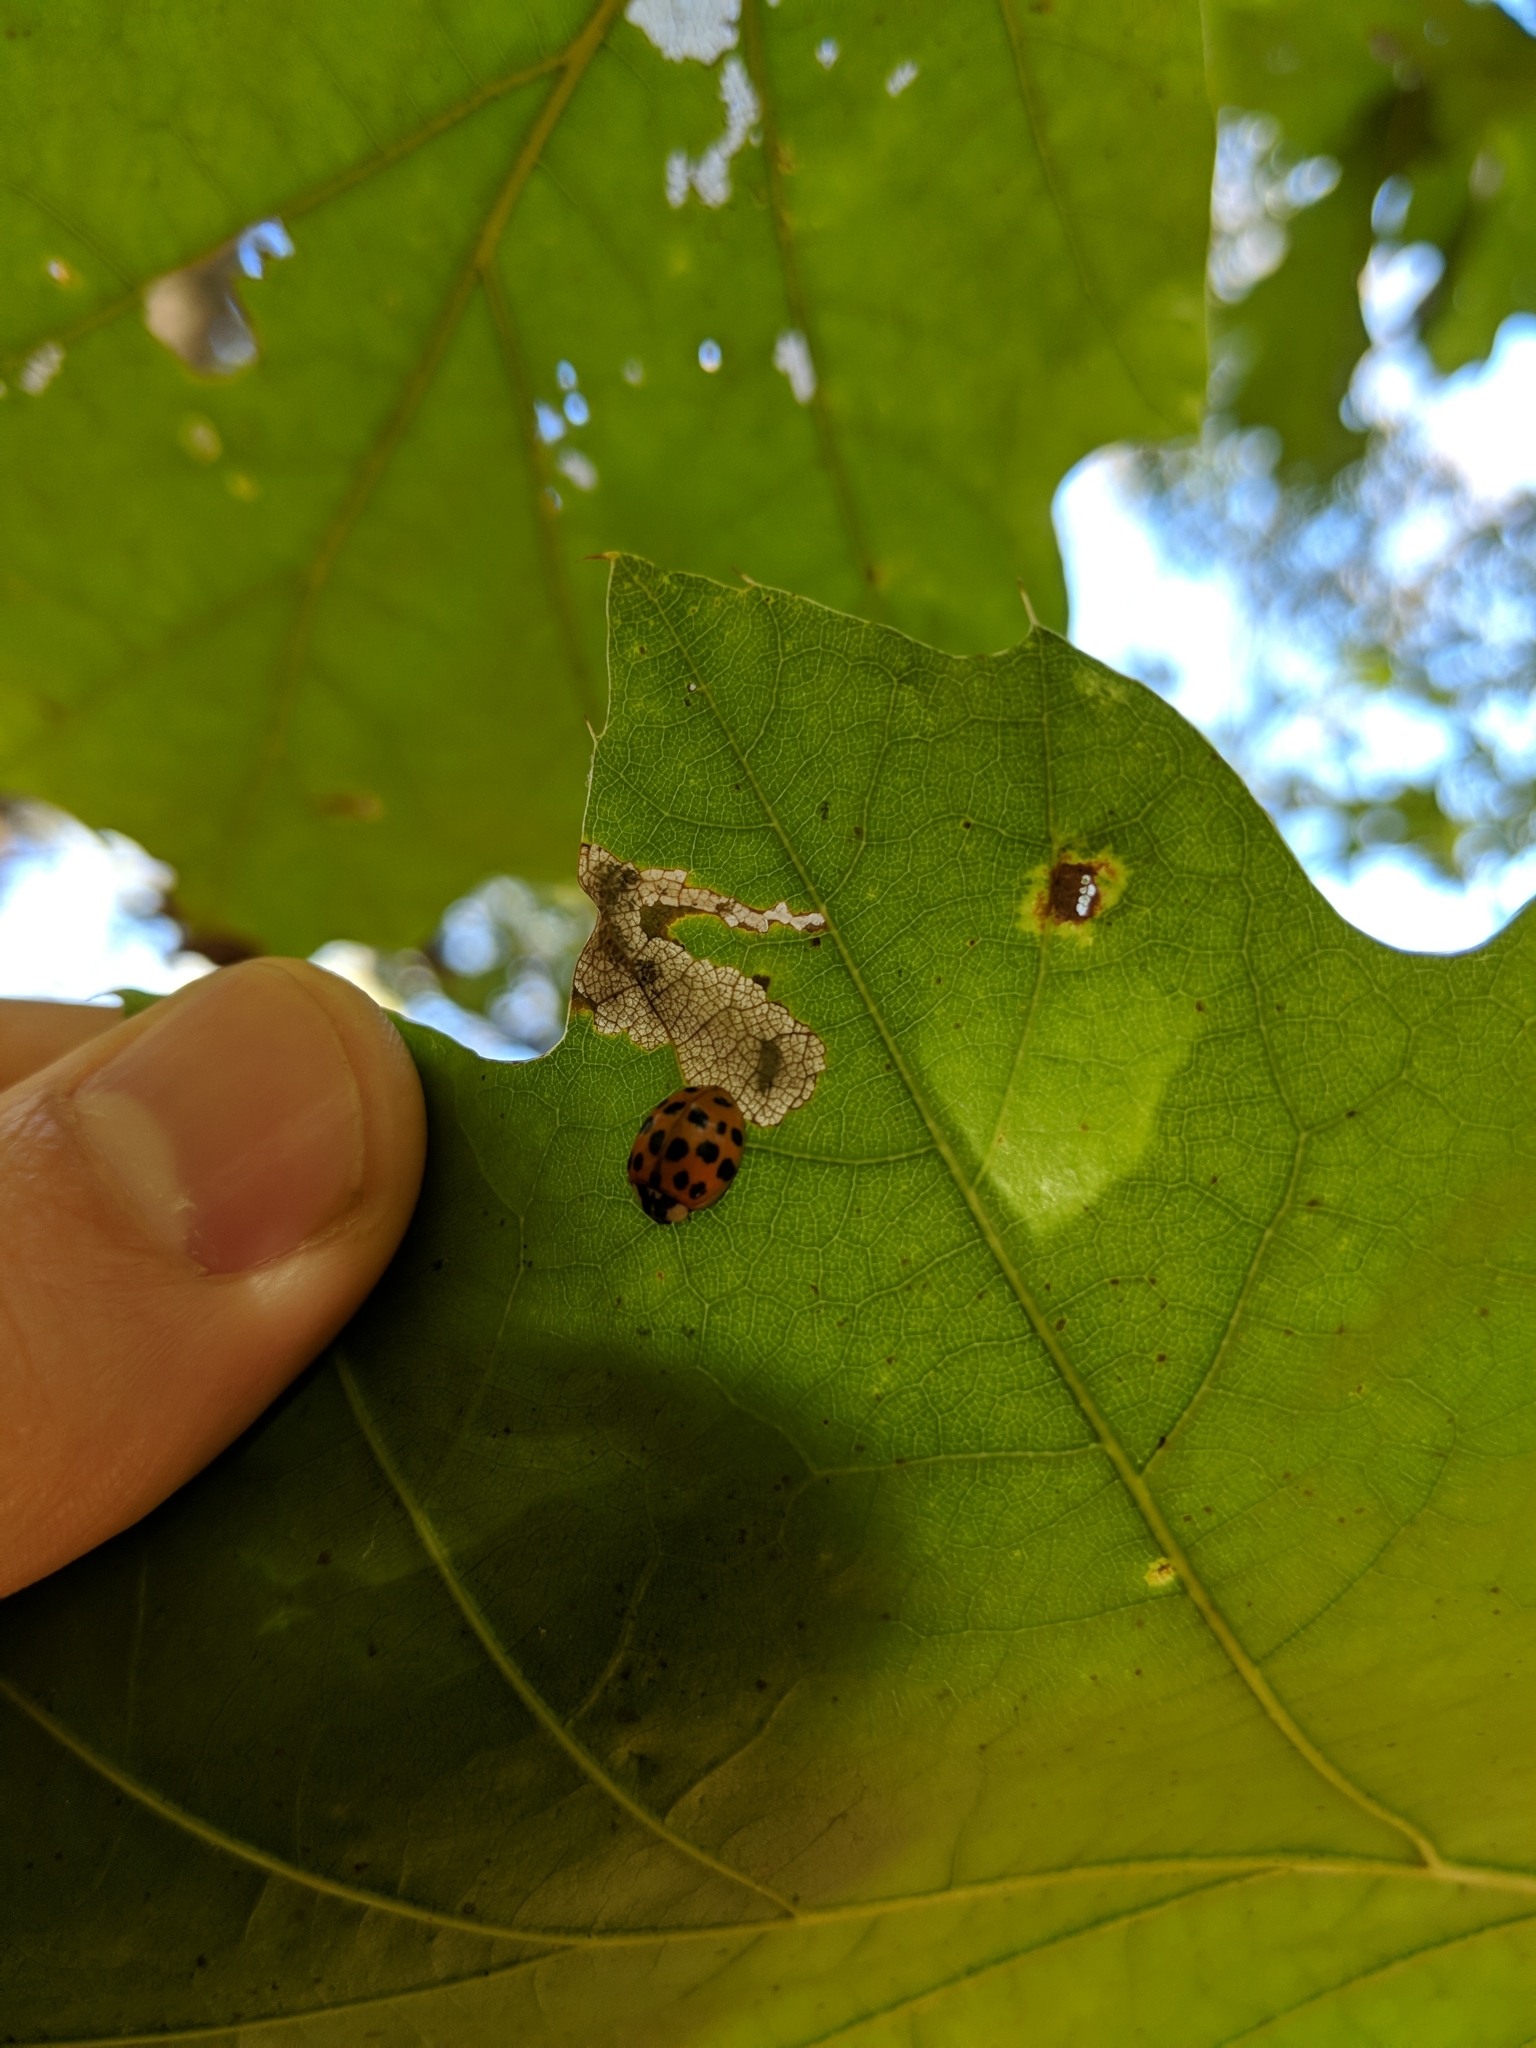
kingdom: Animalia
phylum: Arthropoda
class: Insecta
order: Coleoptera
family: Coccinellidae
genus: Harmonia
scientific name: Harmonia axyridis
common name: Harlequin ladybird
